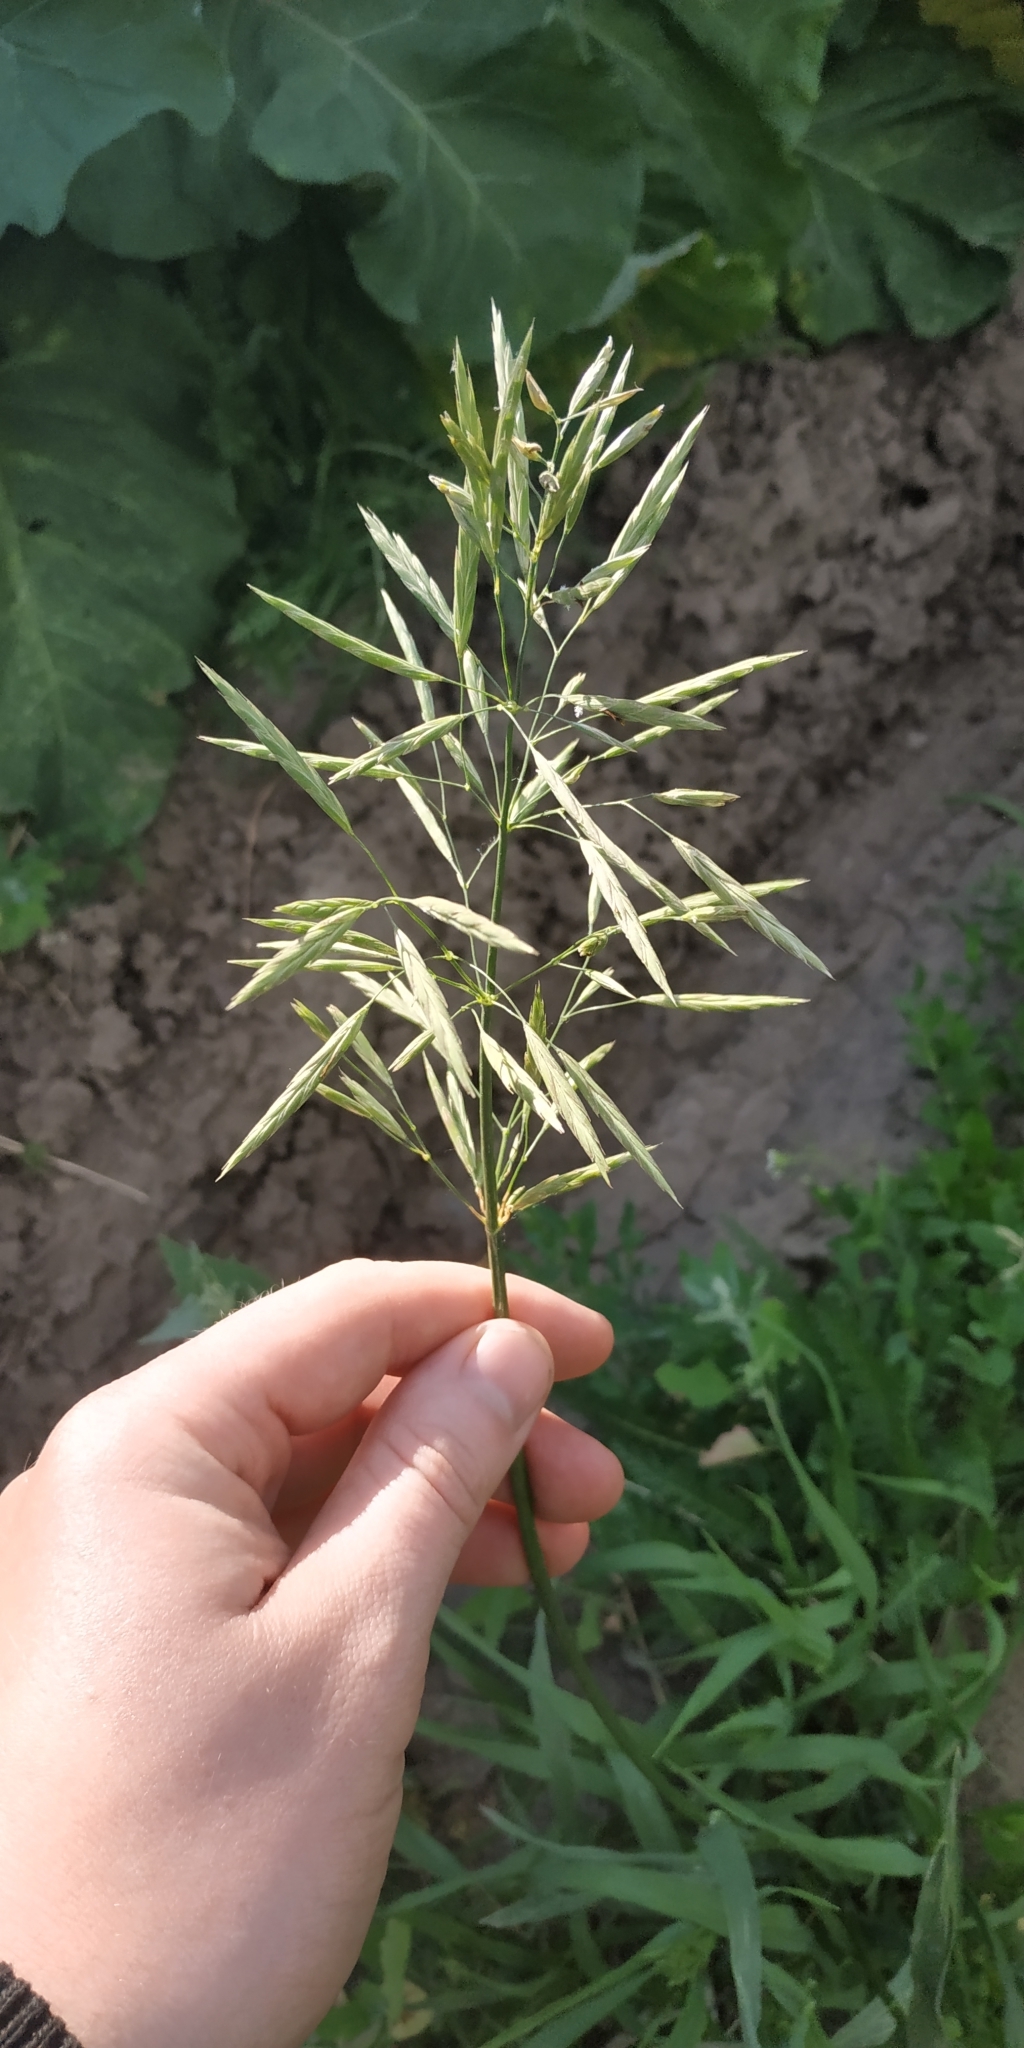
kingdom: Plantae
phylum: Tracheophyta
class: Liliopsida
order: Poales
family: Poaceae
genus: Bromus
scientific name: Bromus inermis
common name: Smooth brome
